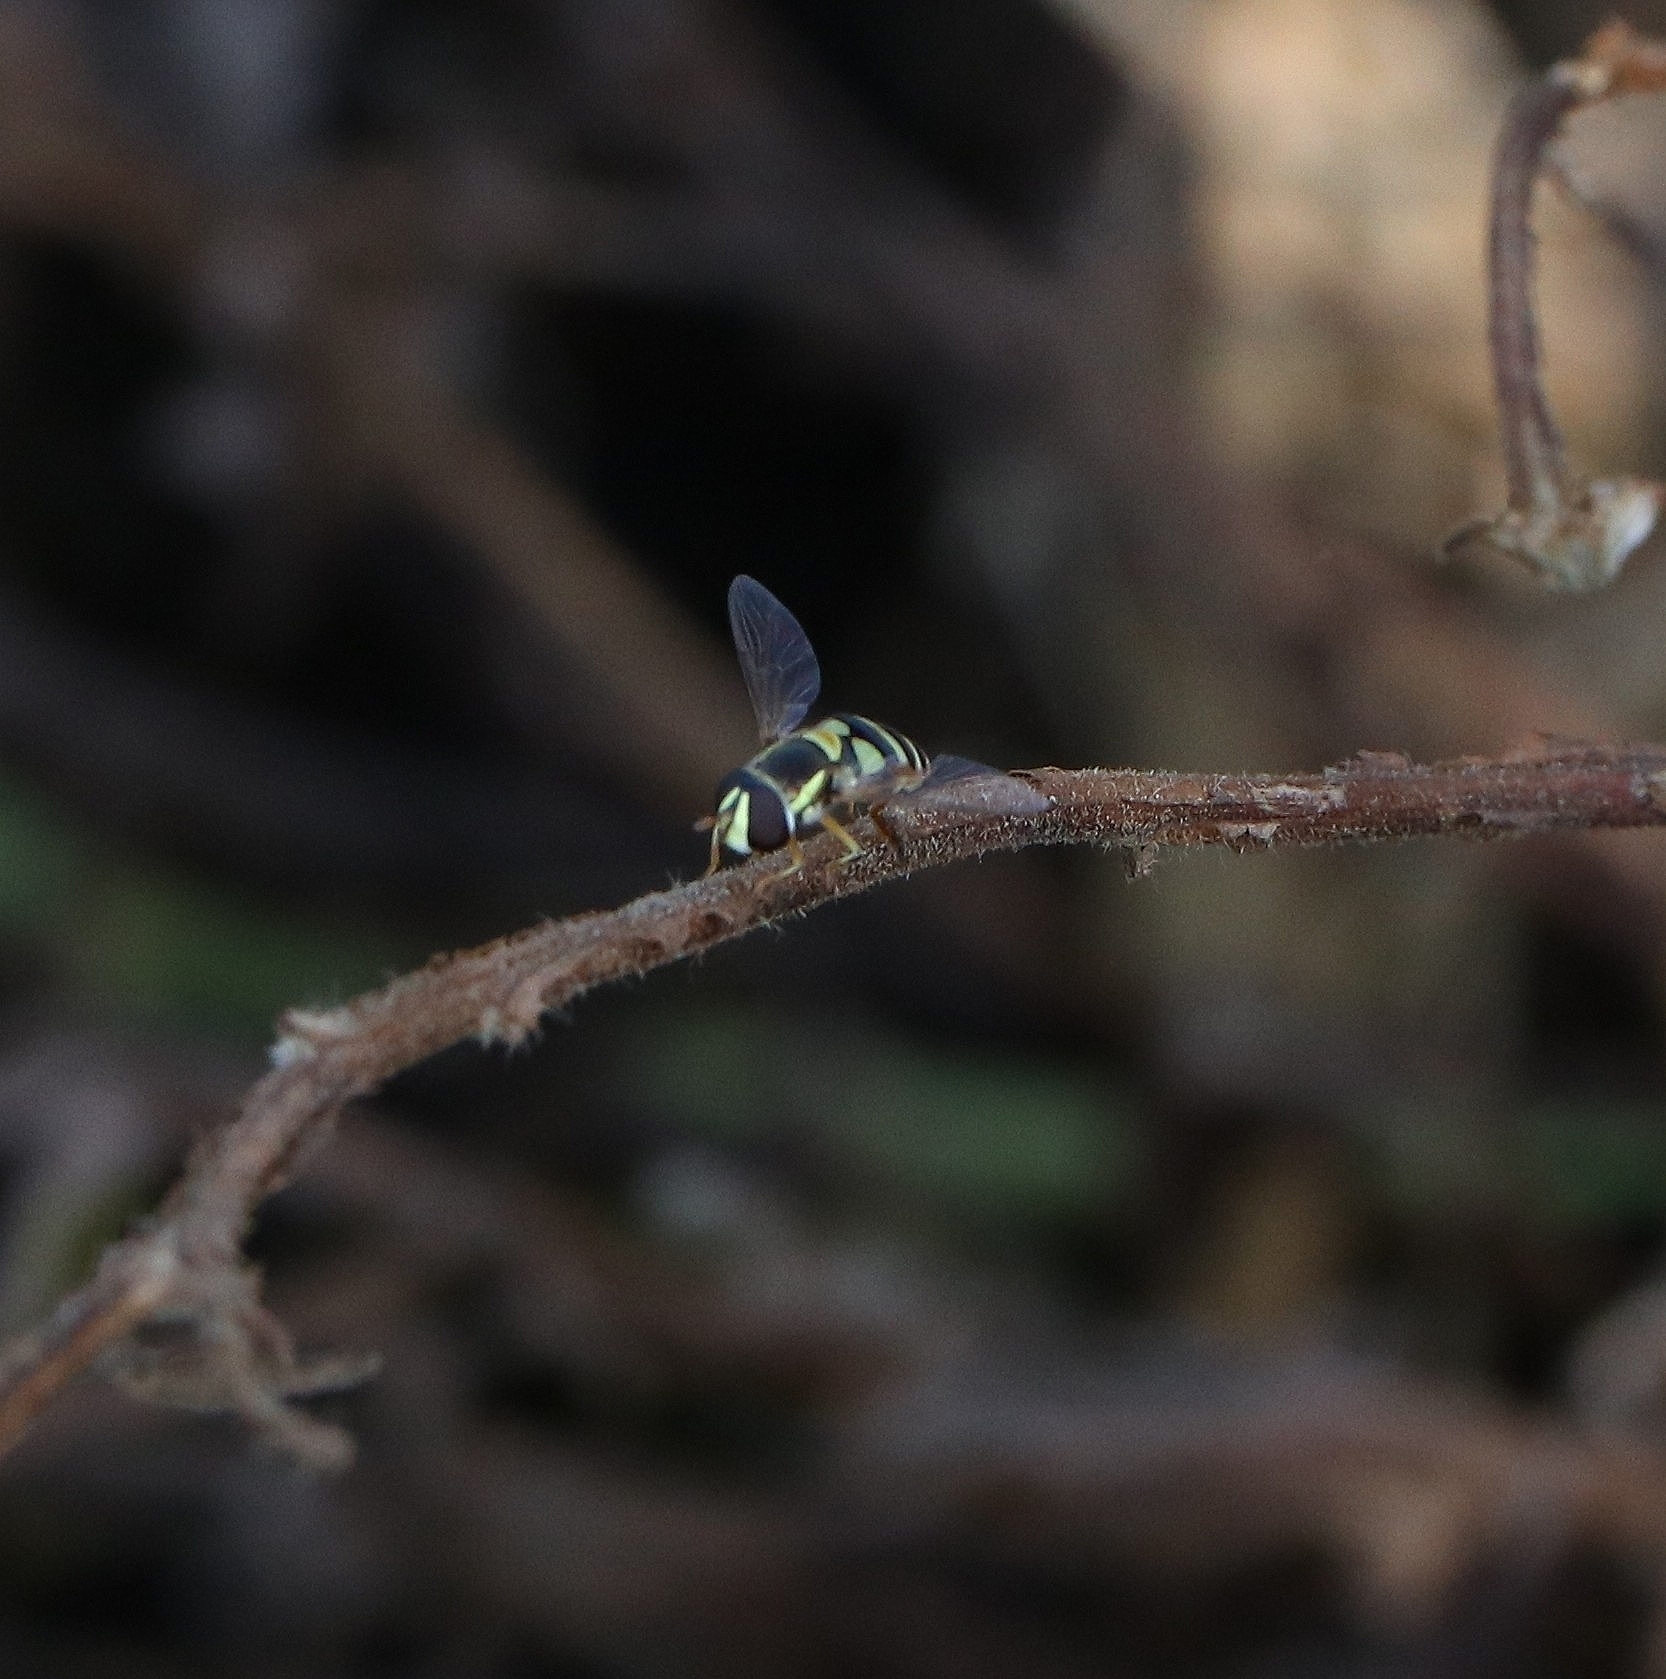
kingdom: Animalia
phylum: Arthropoda
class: Insecta
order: Diptera
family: Syrphidae
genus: Ischiodon
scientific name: Ischiodon scutellaris
